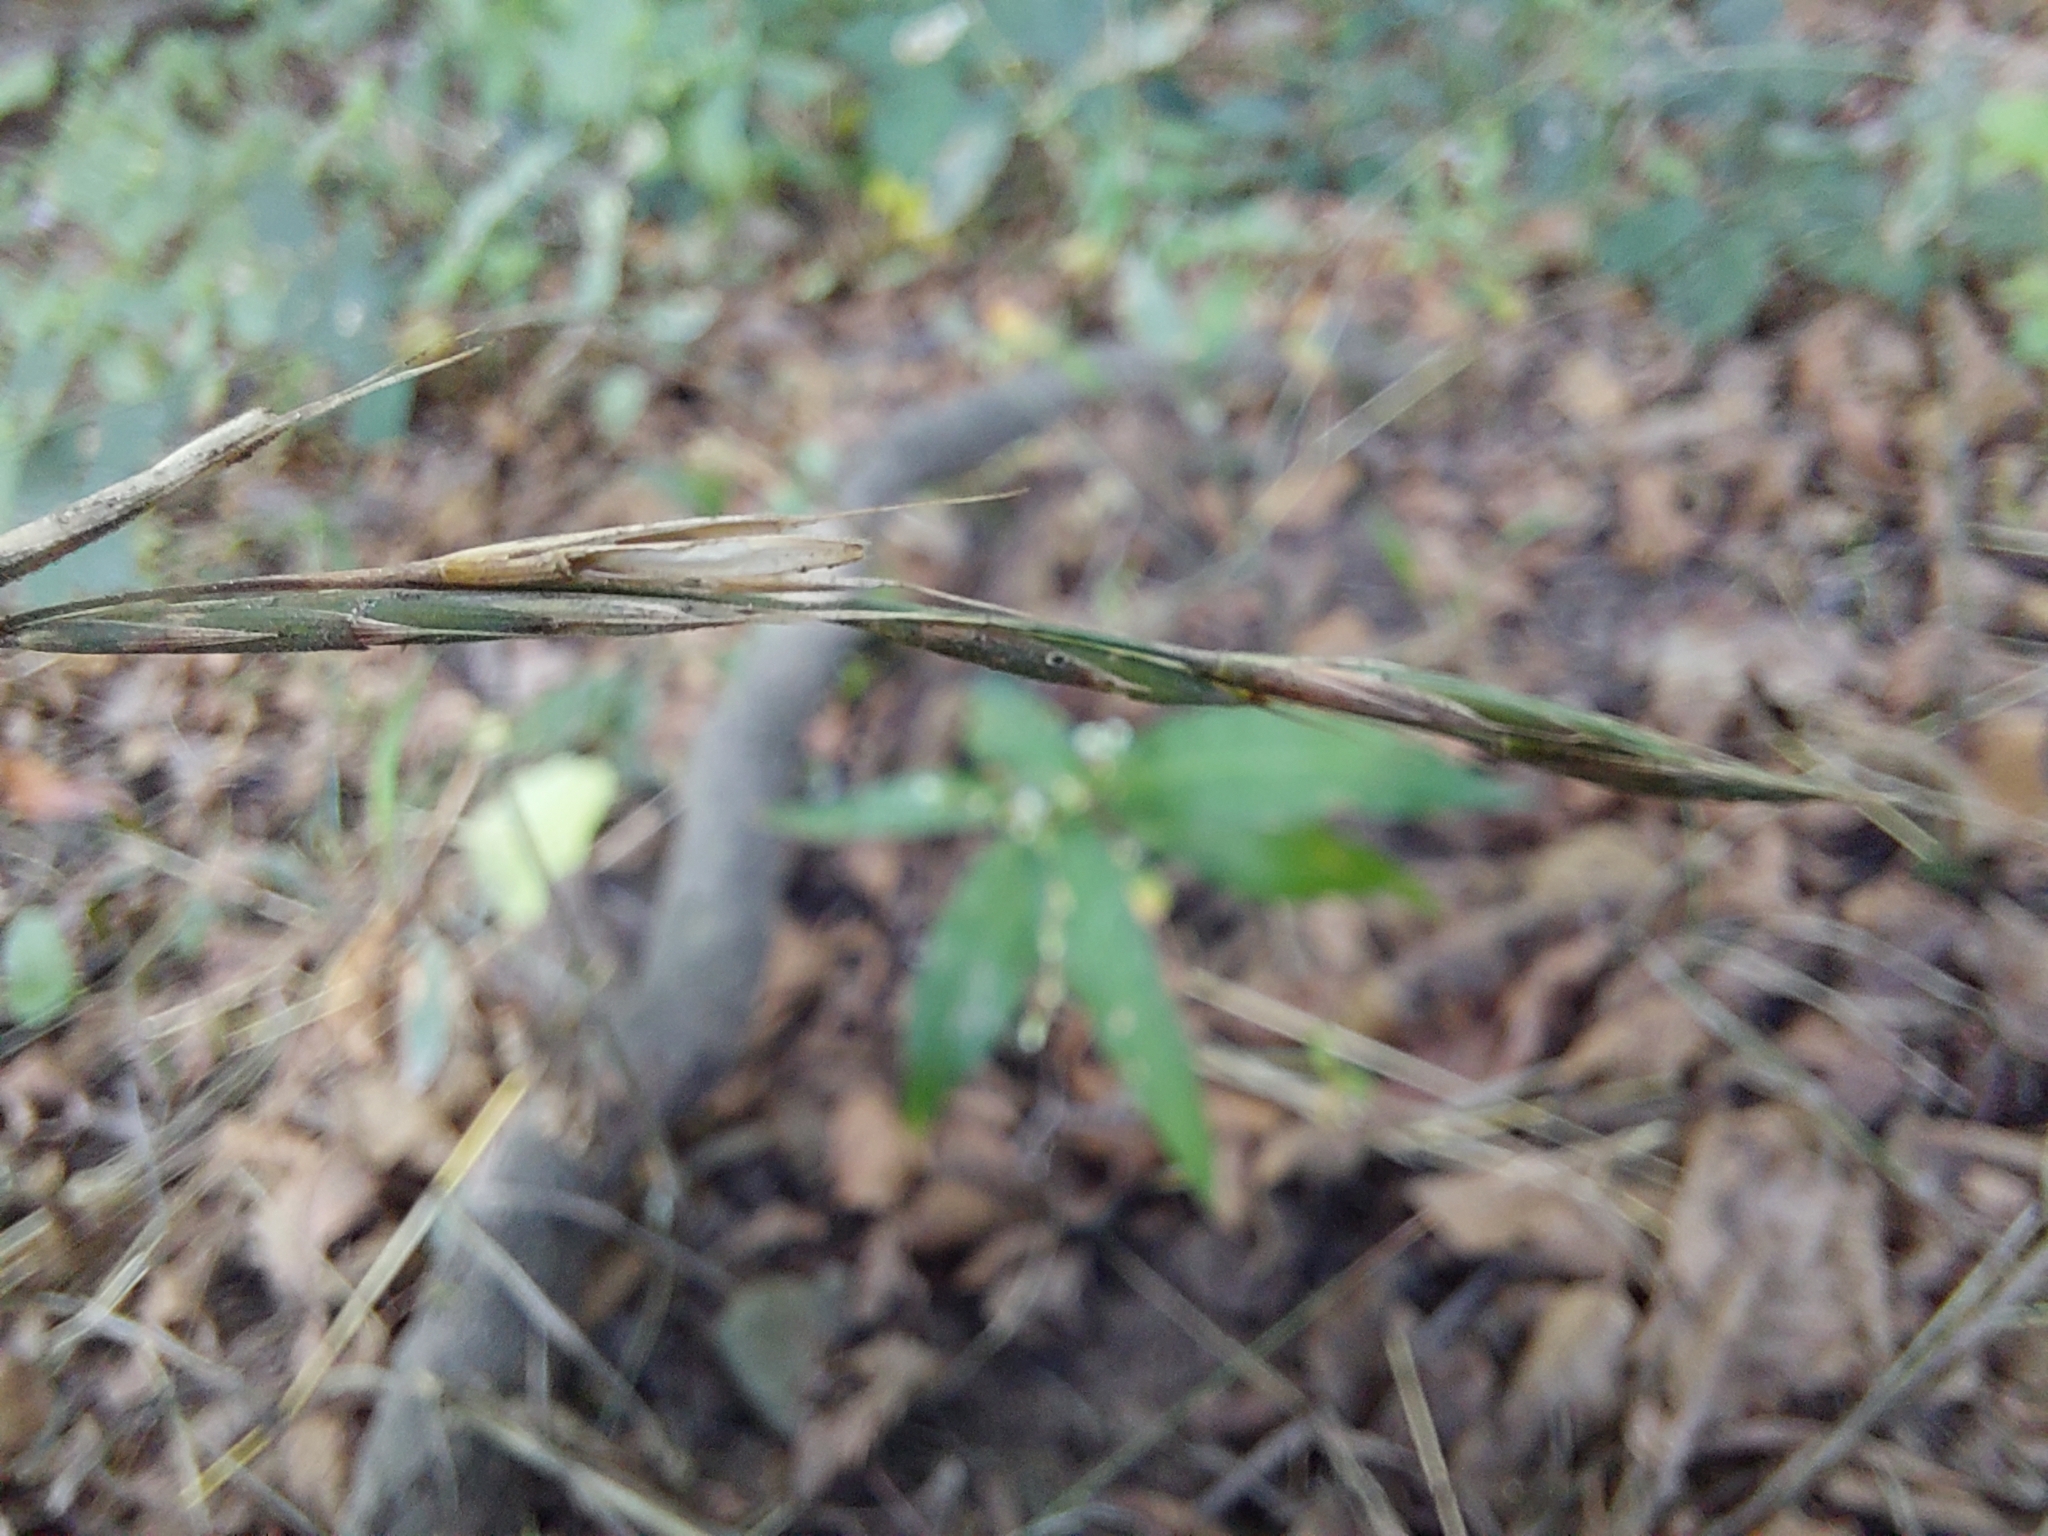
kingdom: Plantae
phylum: Tracheophyta
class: Liliopsida
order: Poales
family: Poaceae
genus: Brachypodium
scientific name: Brachypodium sylvaticum
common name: False-brome
